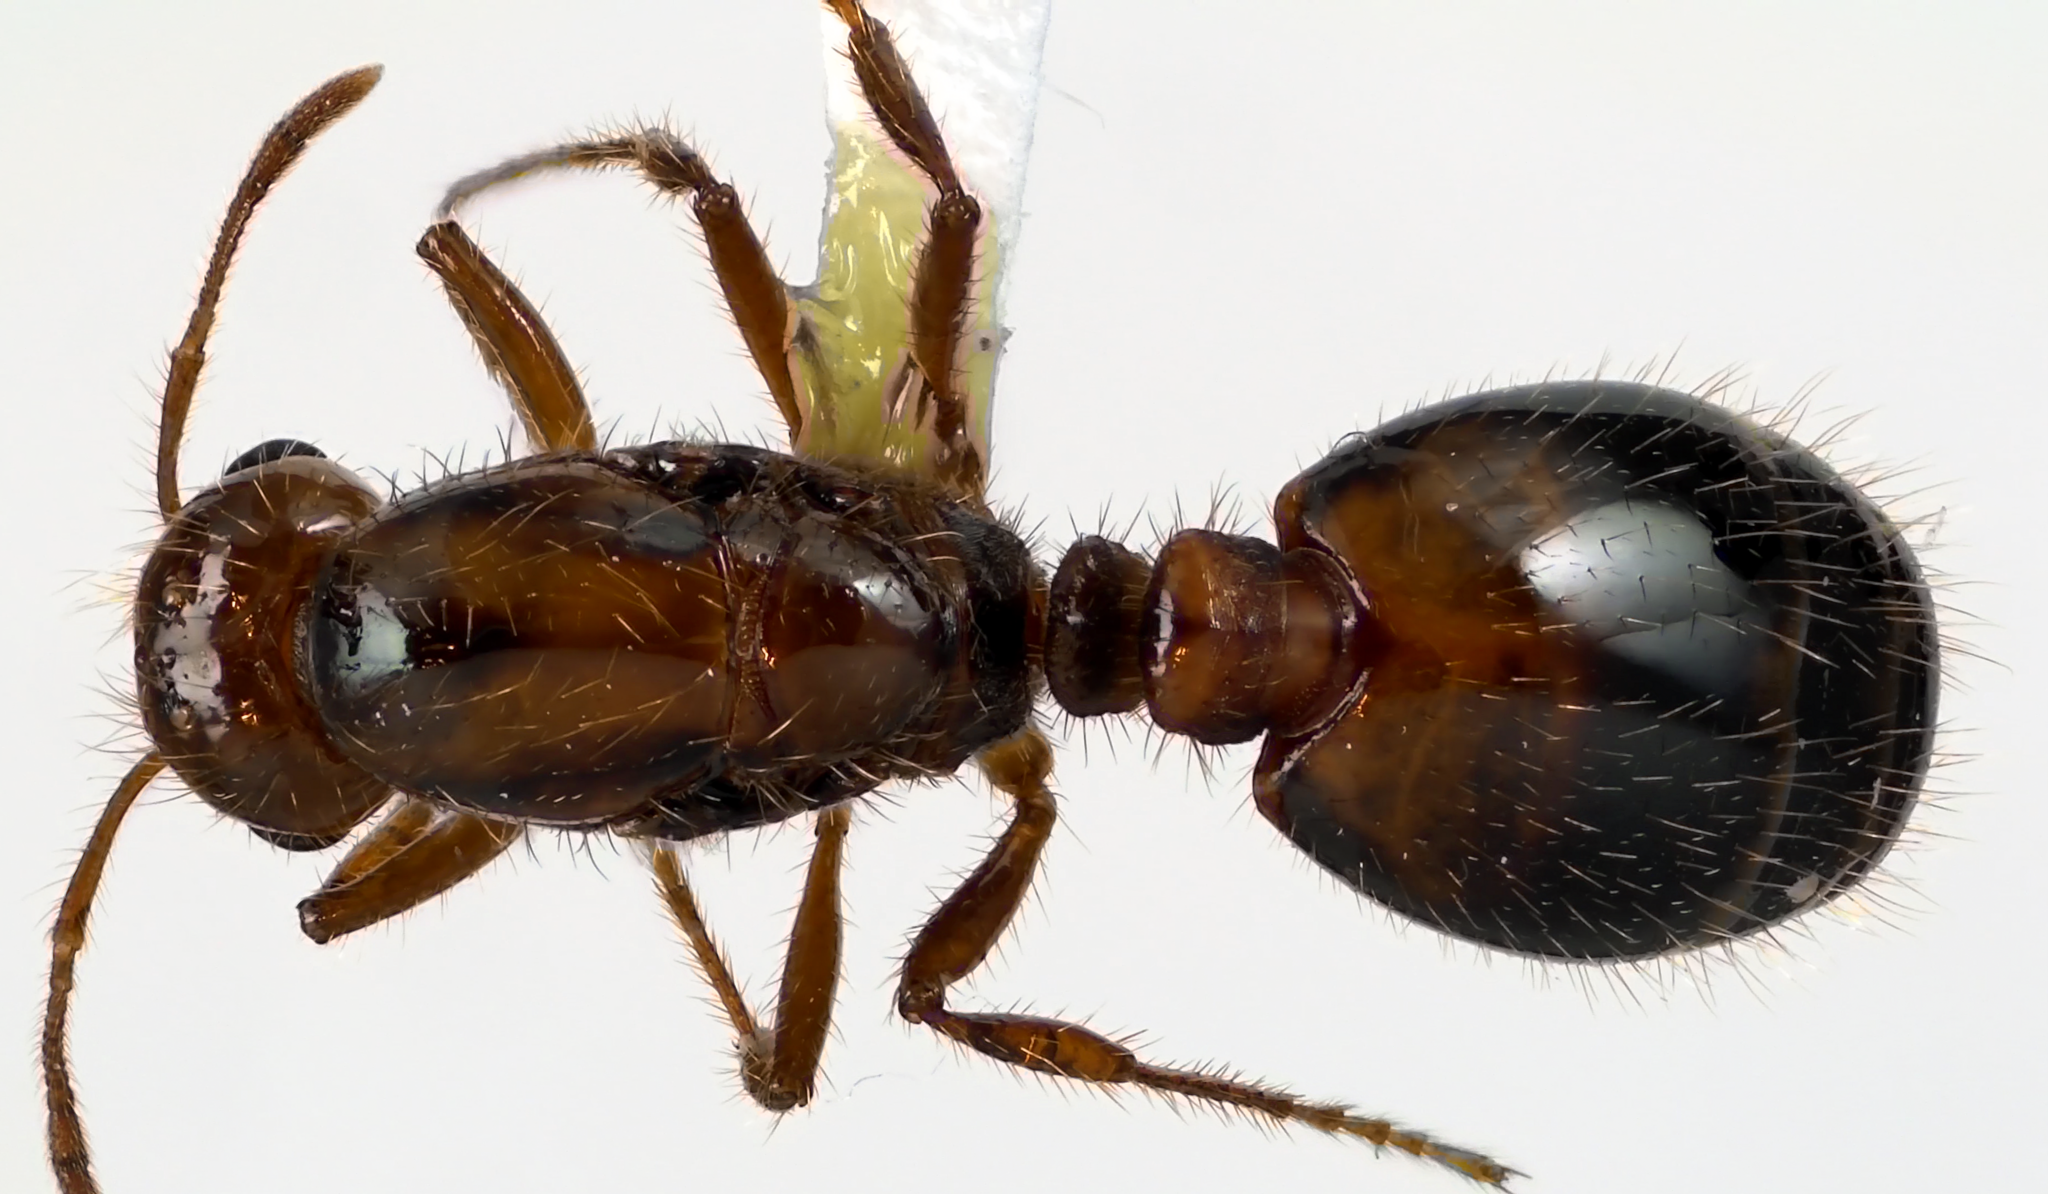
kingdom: Animalia
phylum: Arthropoda
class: Insecta
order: Hymenoptera
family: Formicidae
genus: Solenopsis
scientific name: Solenopsis invicta
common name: Red imported fire ant
